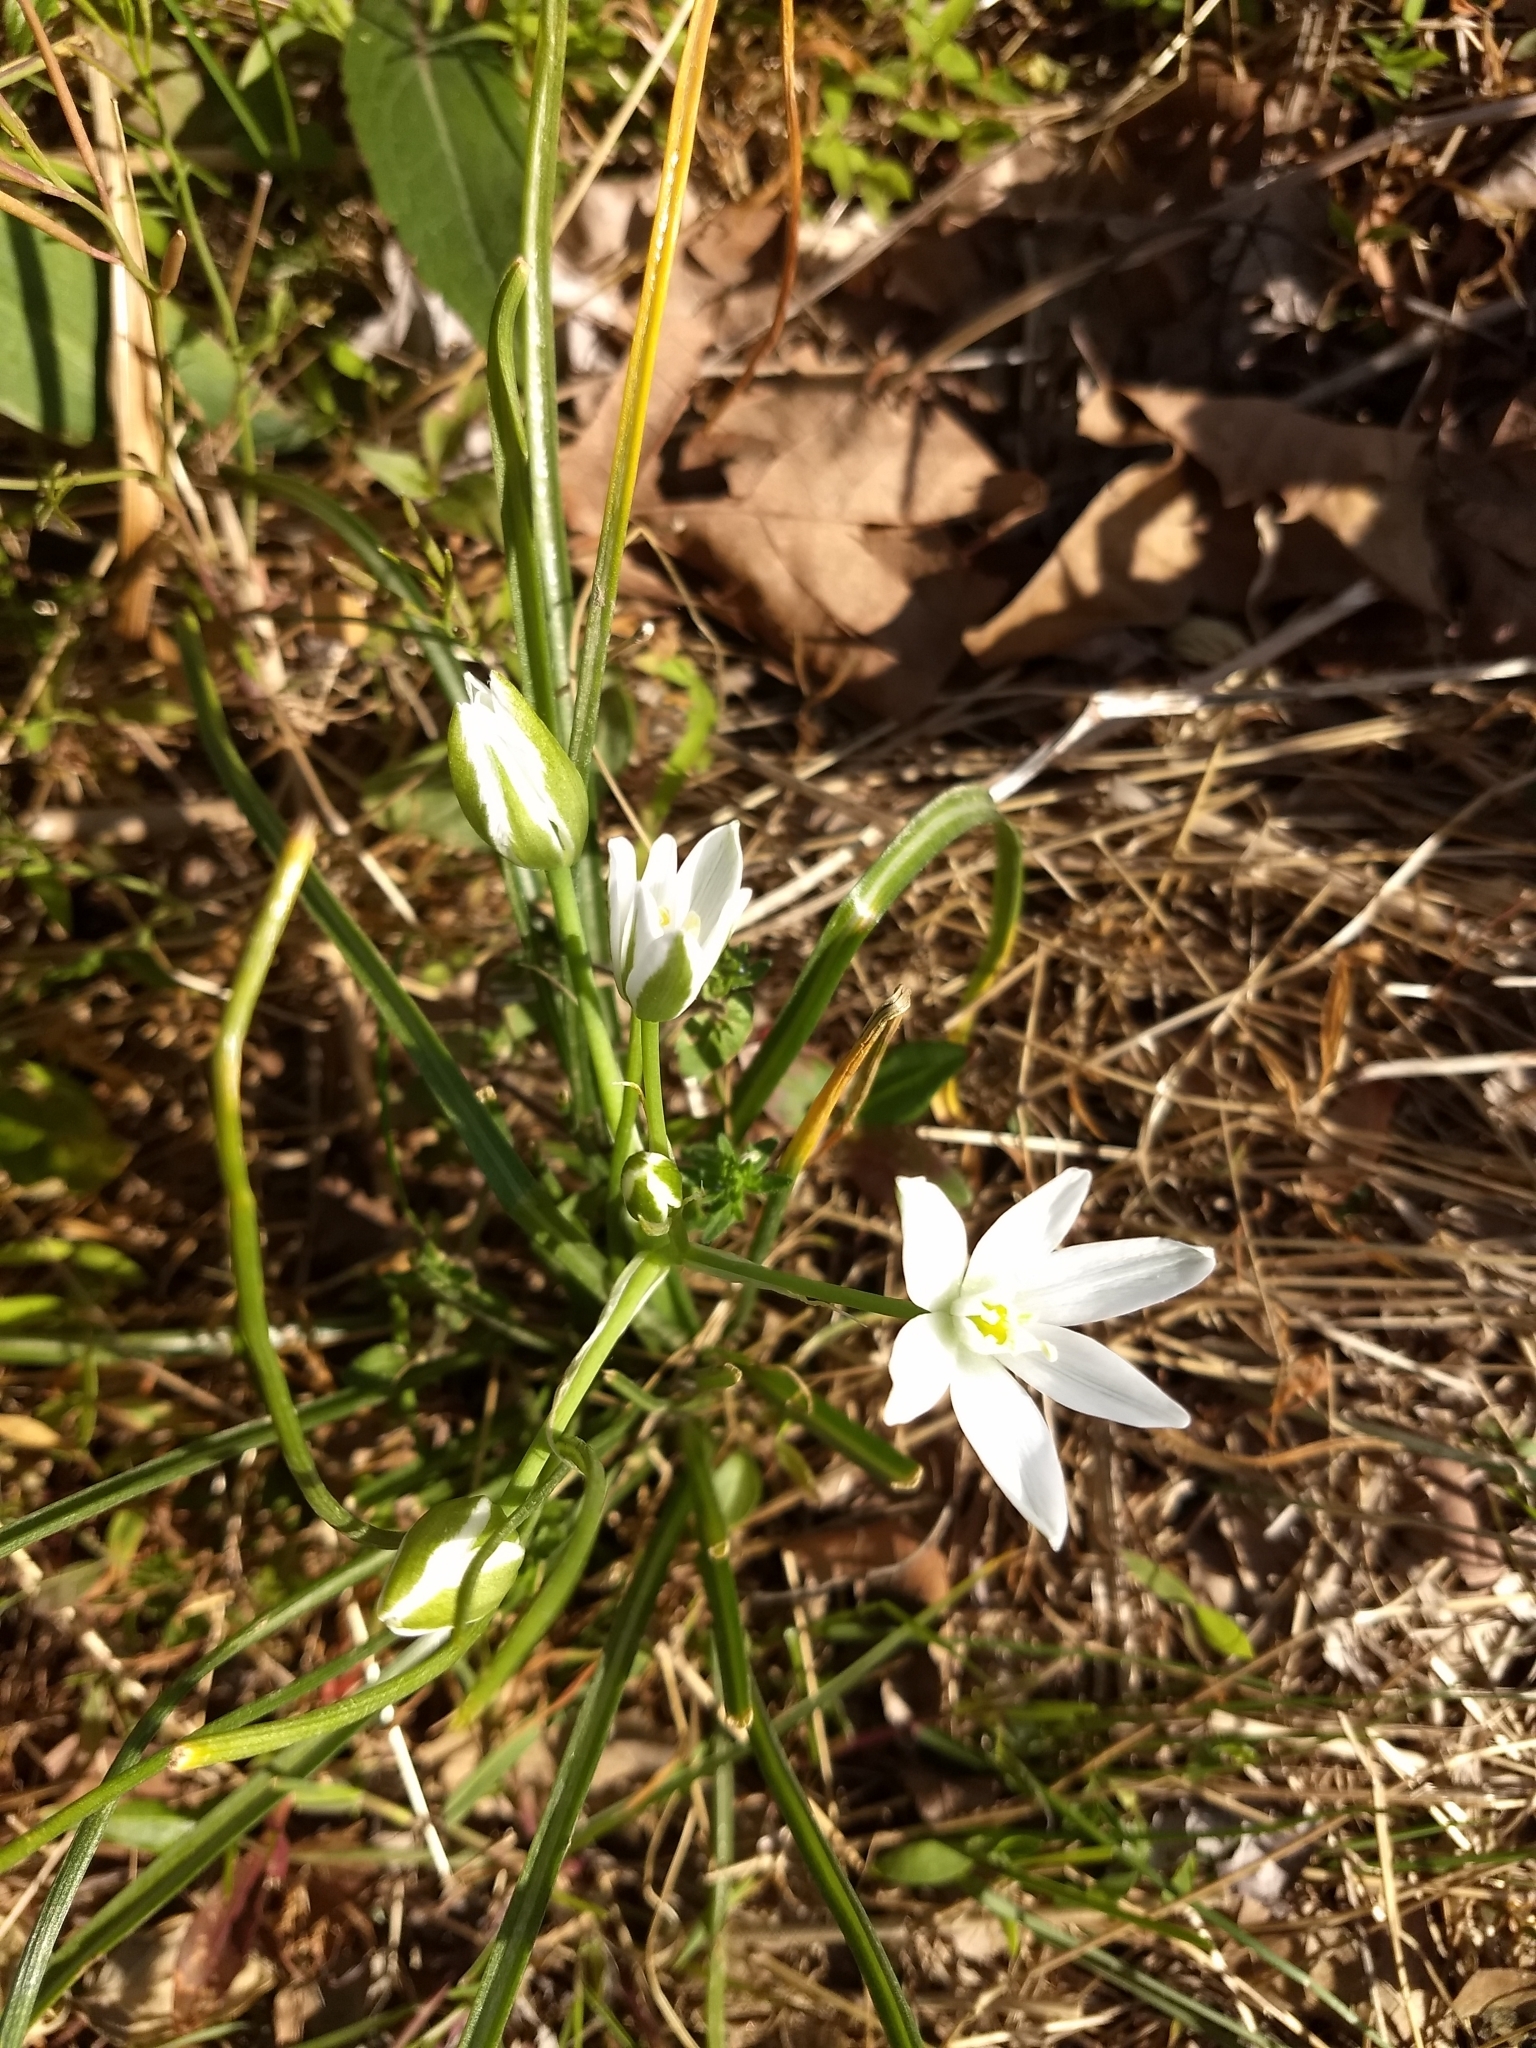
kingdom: Plantae
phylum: Tracheophyta
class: Liliopsida
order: Asparagales
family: Asparagaceae
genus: Ornithogalum
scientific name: Ornithogalum umbellatum
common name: Garden star-of-bethlehem
